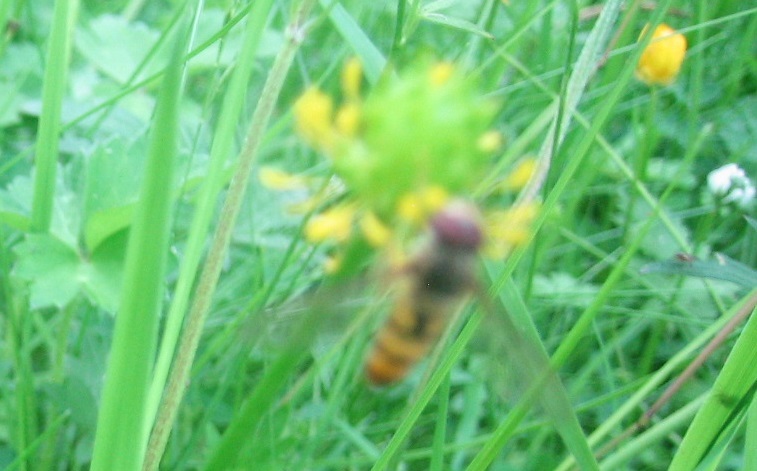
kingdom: Animalia
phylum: Arthropoda
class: Insecta
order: Diptera
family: Syrphidae
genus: Episyrphus
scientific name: Episyrphus balteatus
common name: Marmalade hoverfly
